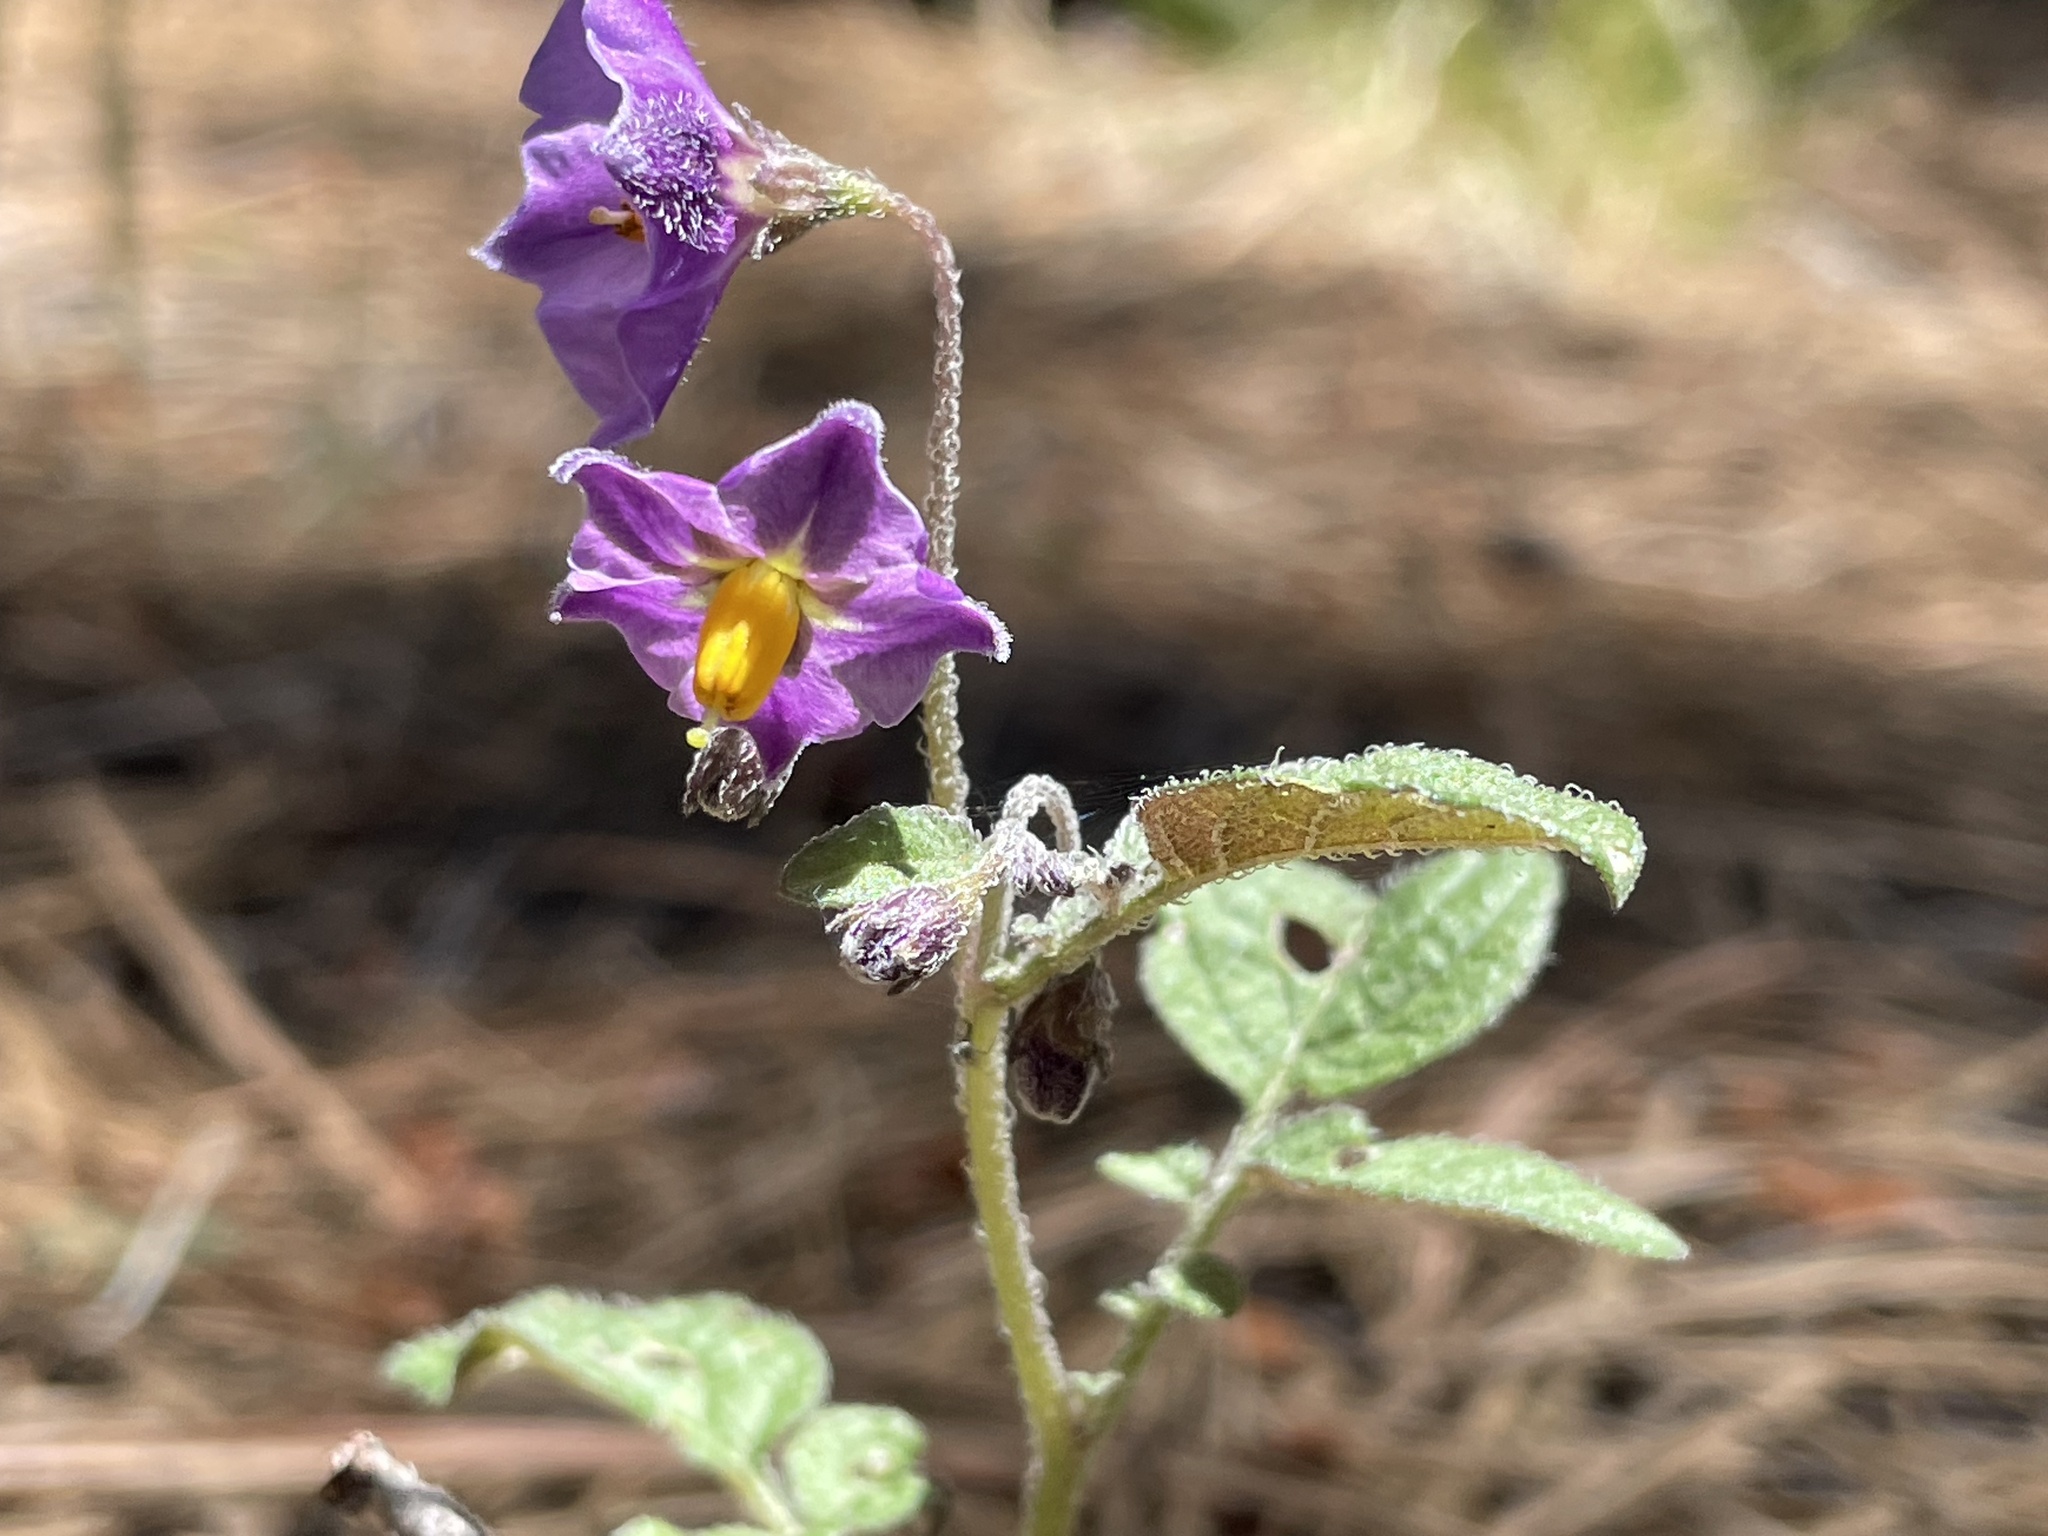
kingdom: Plantae
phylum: Tracheophyta
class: Magnoliopsida
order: Solanales
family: Solanaceae
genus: Solanum
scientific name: Solanum stoloniferum
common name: Fendler's nighshade
